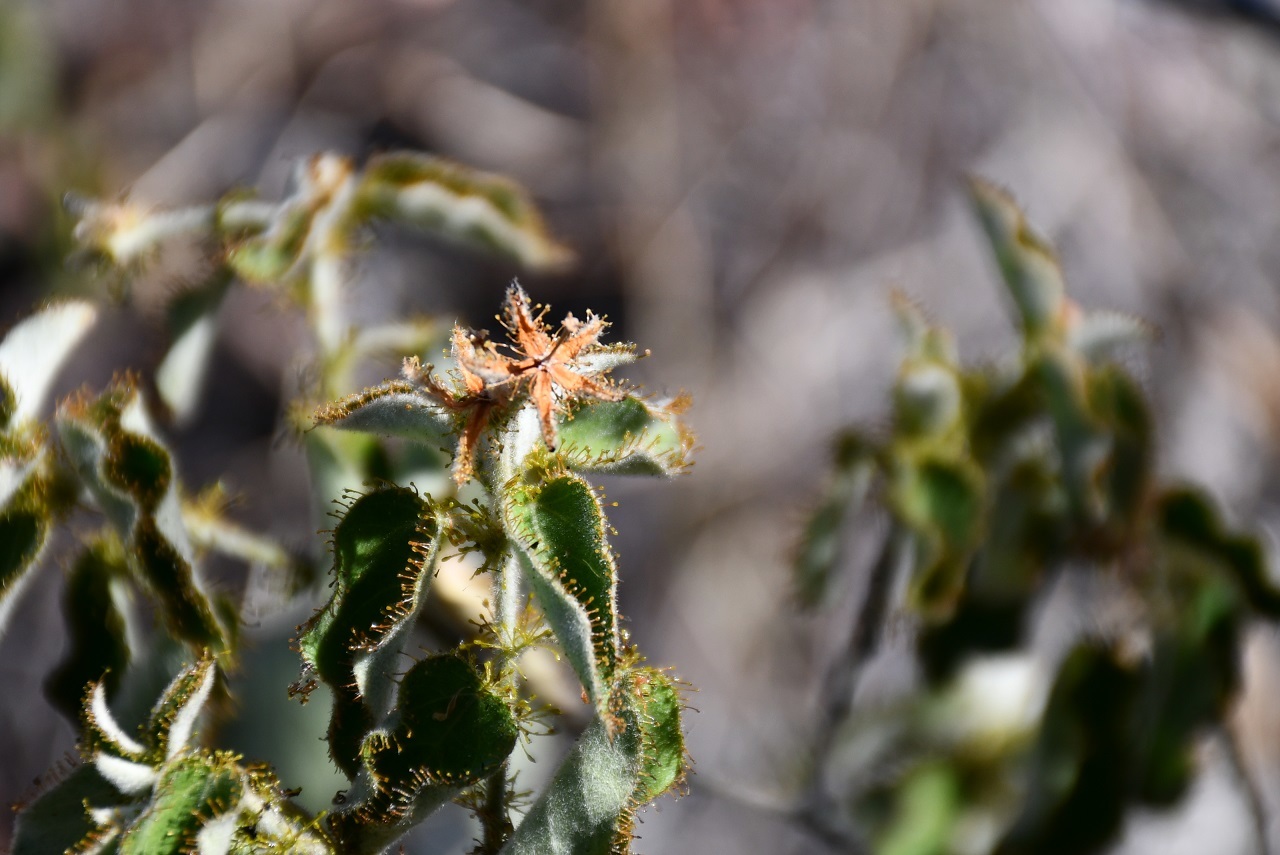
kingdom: Plantae
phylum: Tracheophyta
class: Magnoliopsida
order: Malpighiales
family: Euphorbiaceae
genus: Croton
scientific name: Croton ciliatoglandulifer
